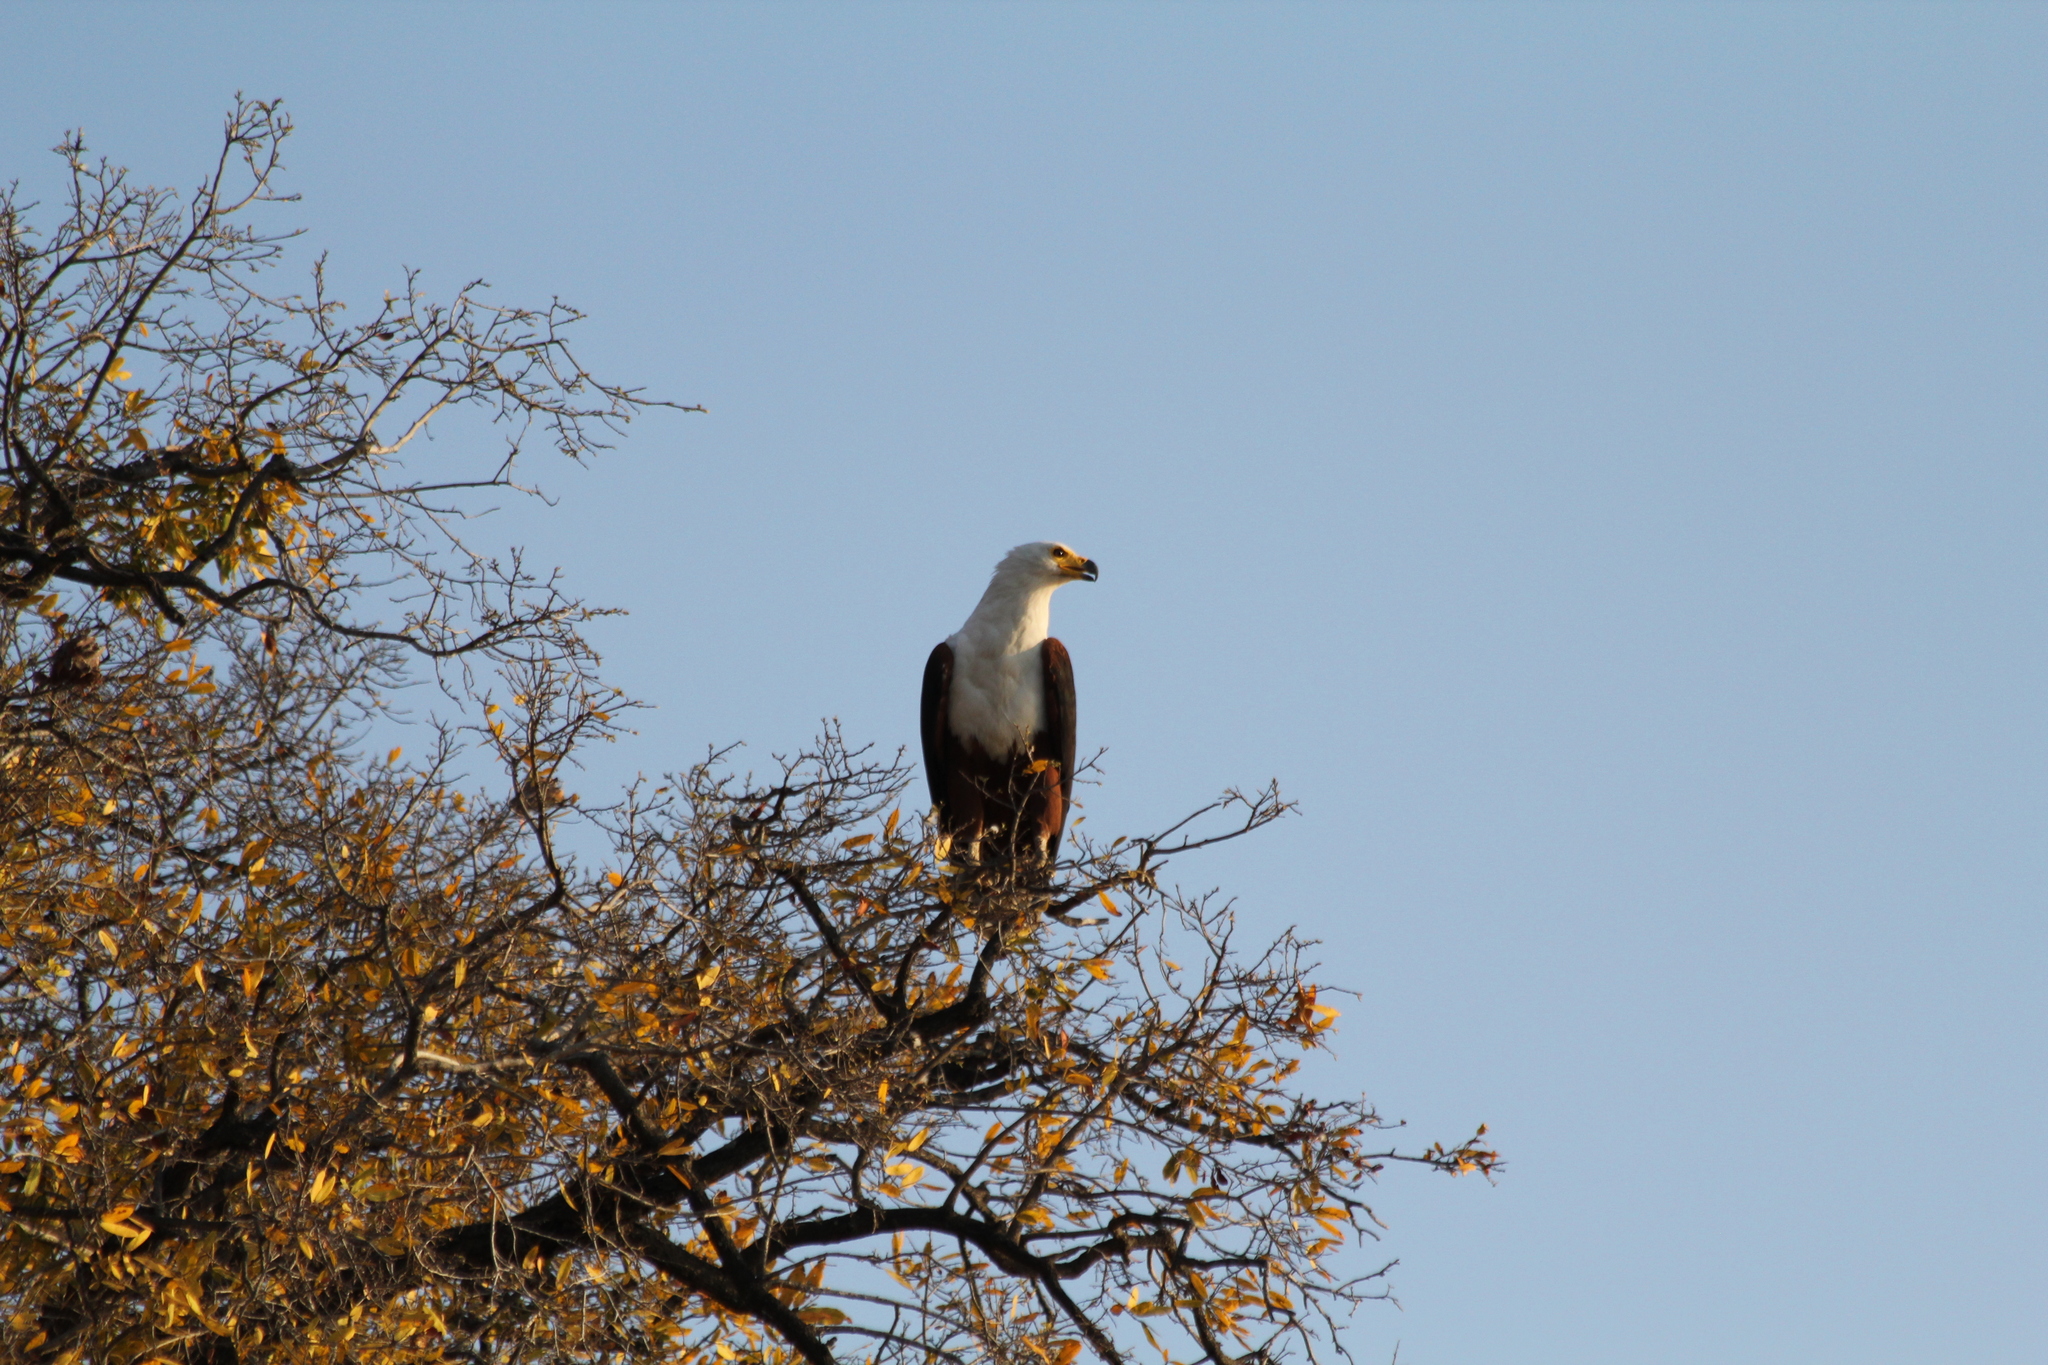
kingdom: Animalia
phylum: Chordata
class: Aves
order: Accipitriformes
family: Accipitridae
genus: Haliaeetus
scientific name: Haliaeetus vocifer
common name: African fish eagle
